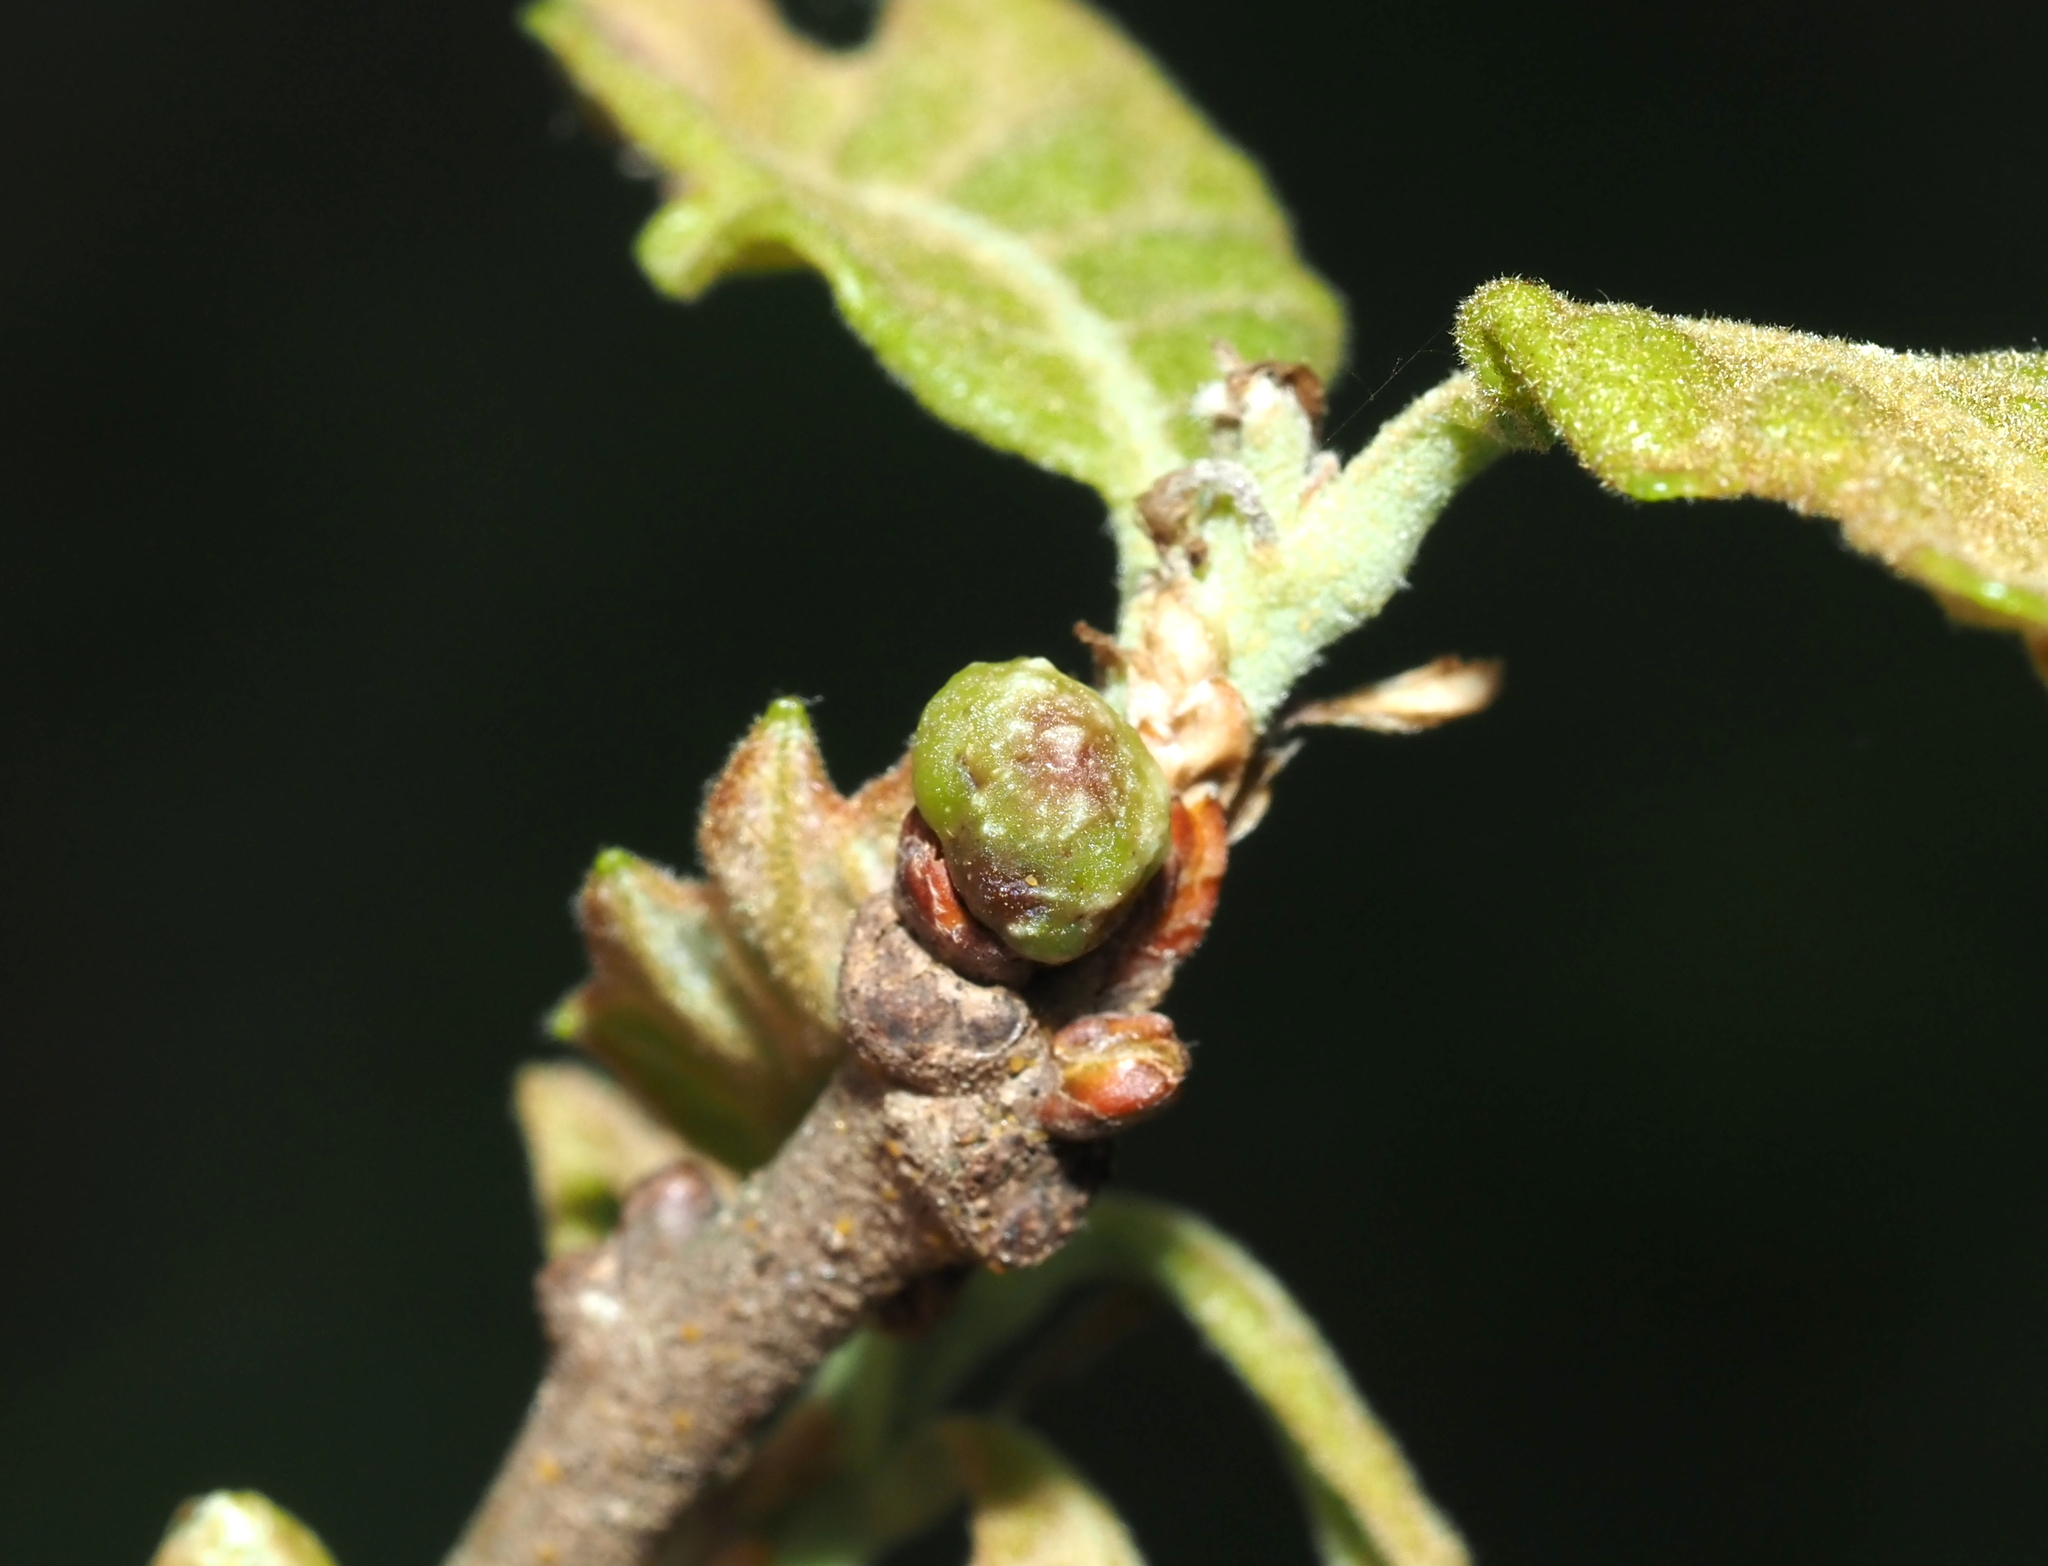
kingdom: Animalia
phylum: Arthropoda
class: Insecta
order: Hymenoptera
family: Cynipidae
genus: Andricus
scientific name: Andricus
